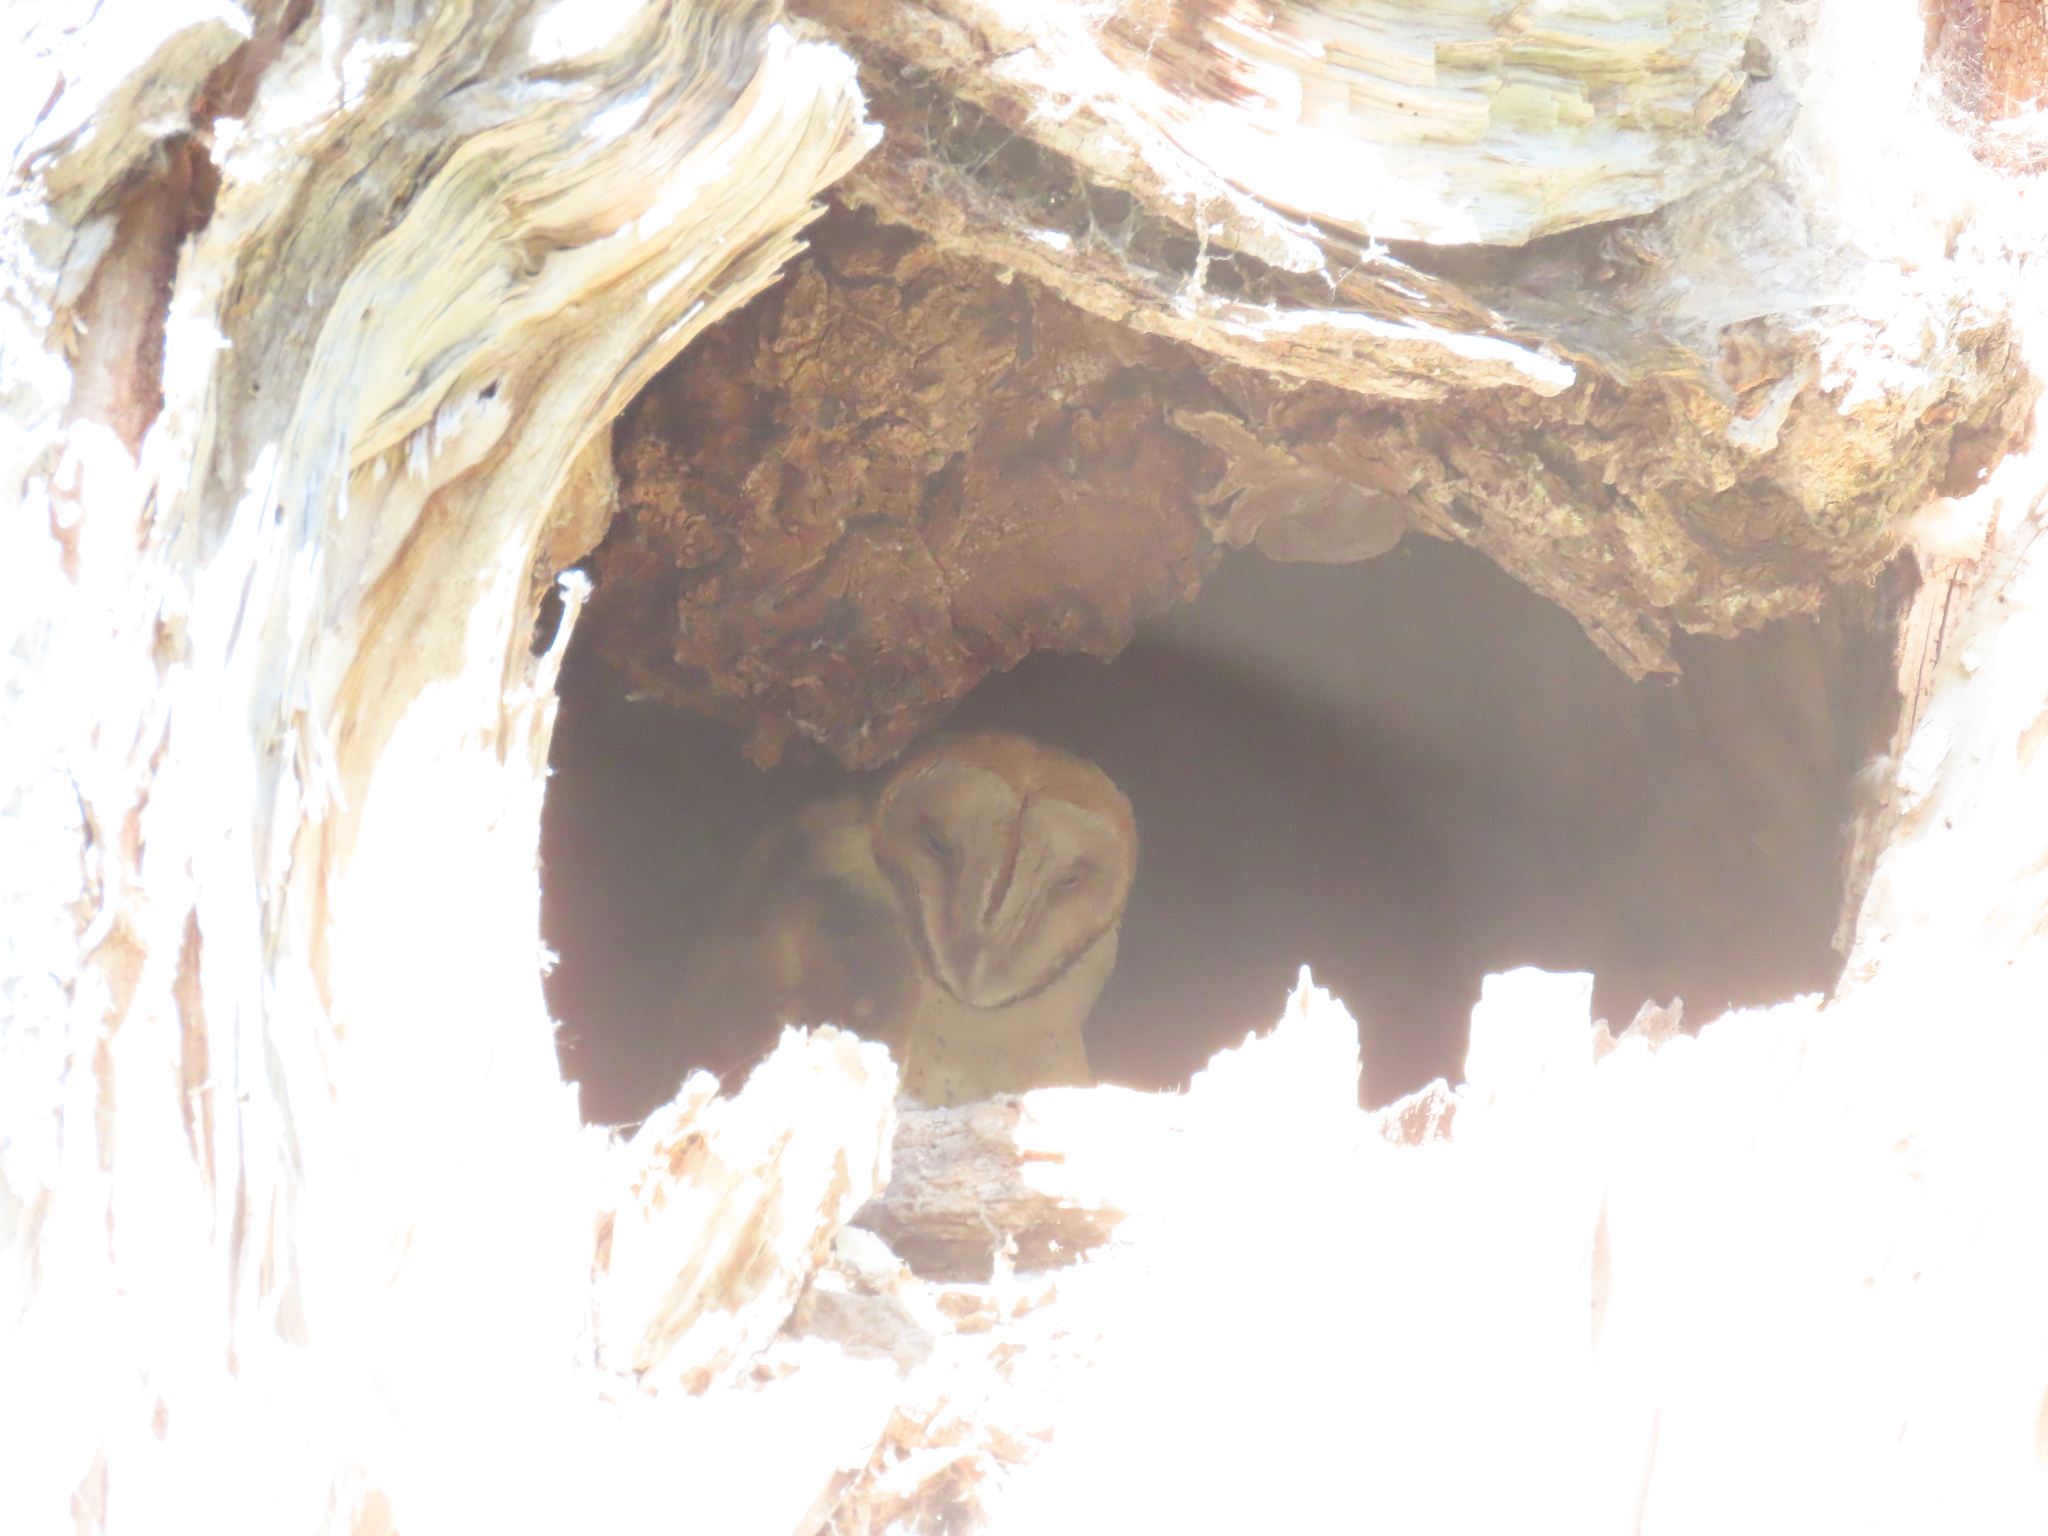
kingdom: Animalia
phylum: Chordata
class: Aves
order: Strigiformes
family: Tytonidae
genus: Tyto
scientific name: Tyto alba
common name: Barn owl
